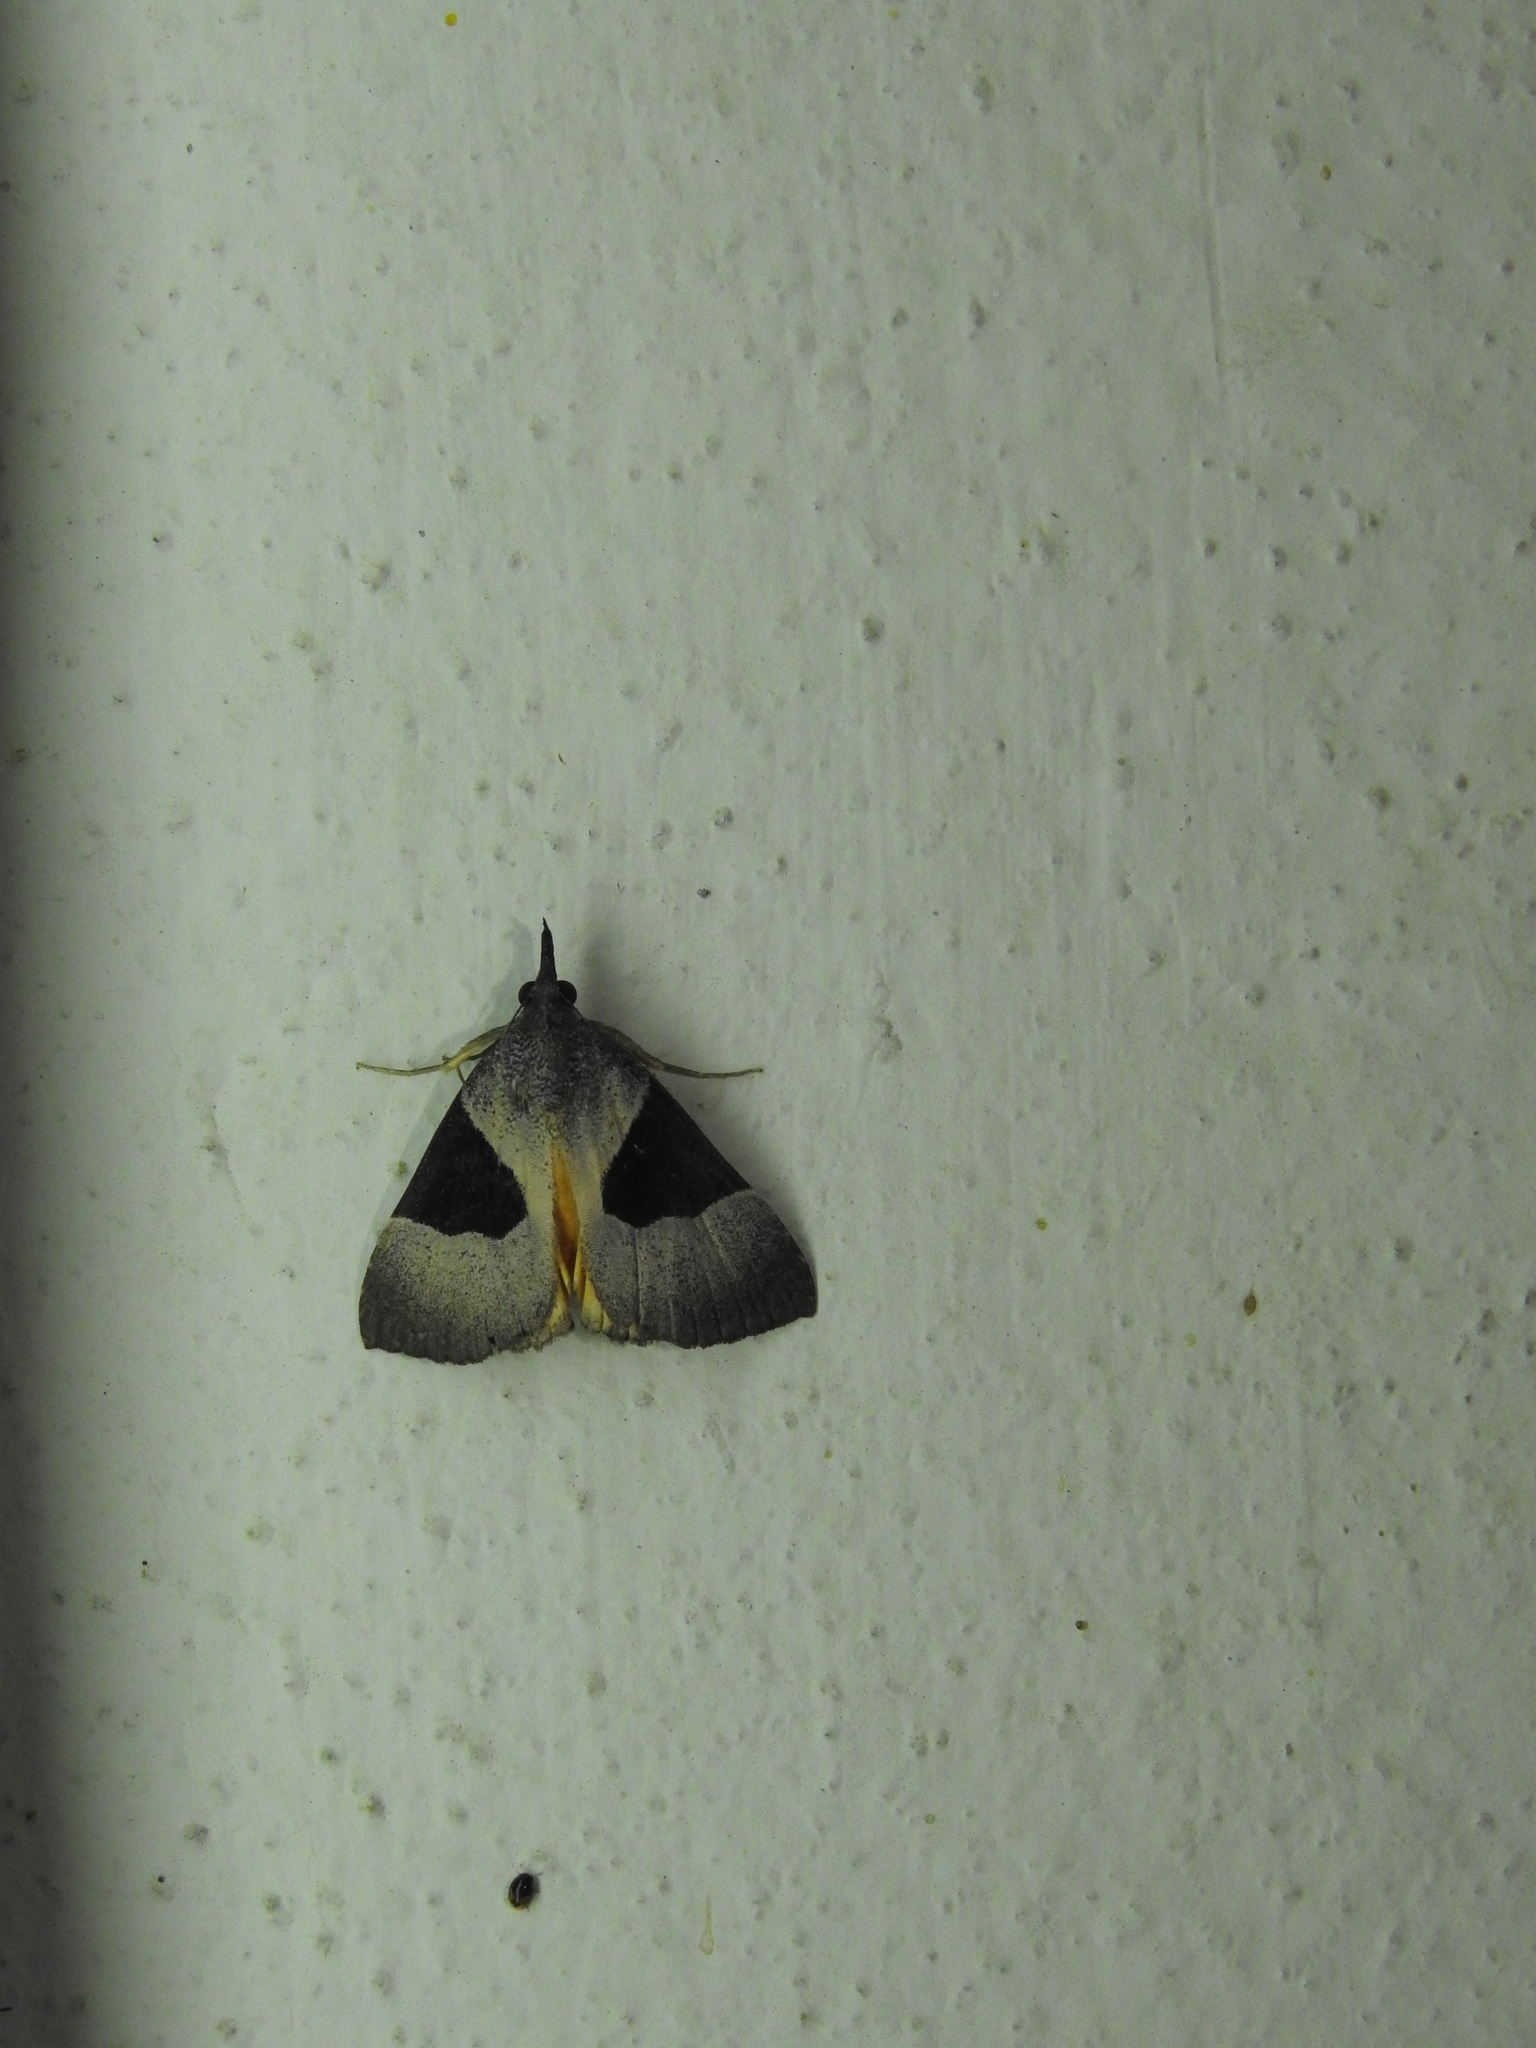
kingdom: Animalia
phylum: Arthropoda
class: Insecta
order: Lepidoptera
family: Erebidae
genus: Hypena
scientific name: Hypena Dichromia sagitta
